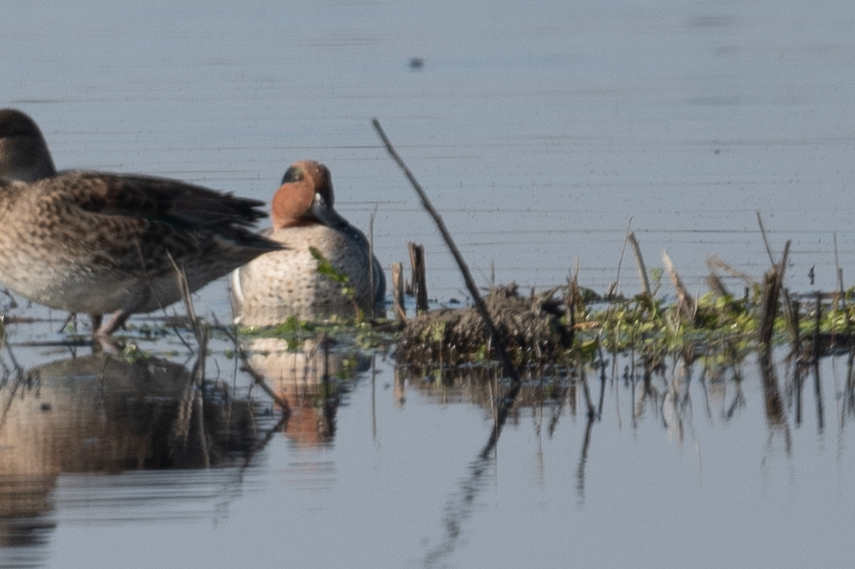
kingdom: Animalia
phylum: Chordata
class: Aves
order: Anseriformes
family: Anatidae
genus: Anas
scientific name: Anas crecca
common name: Eurasian teal
